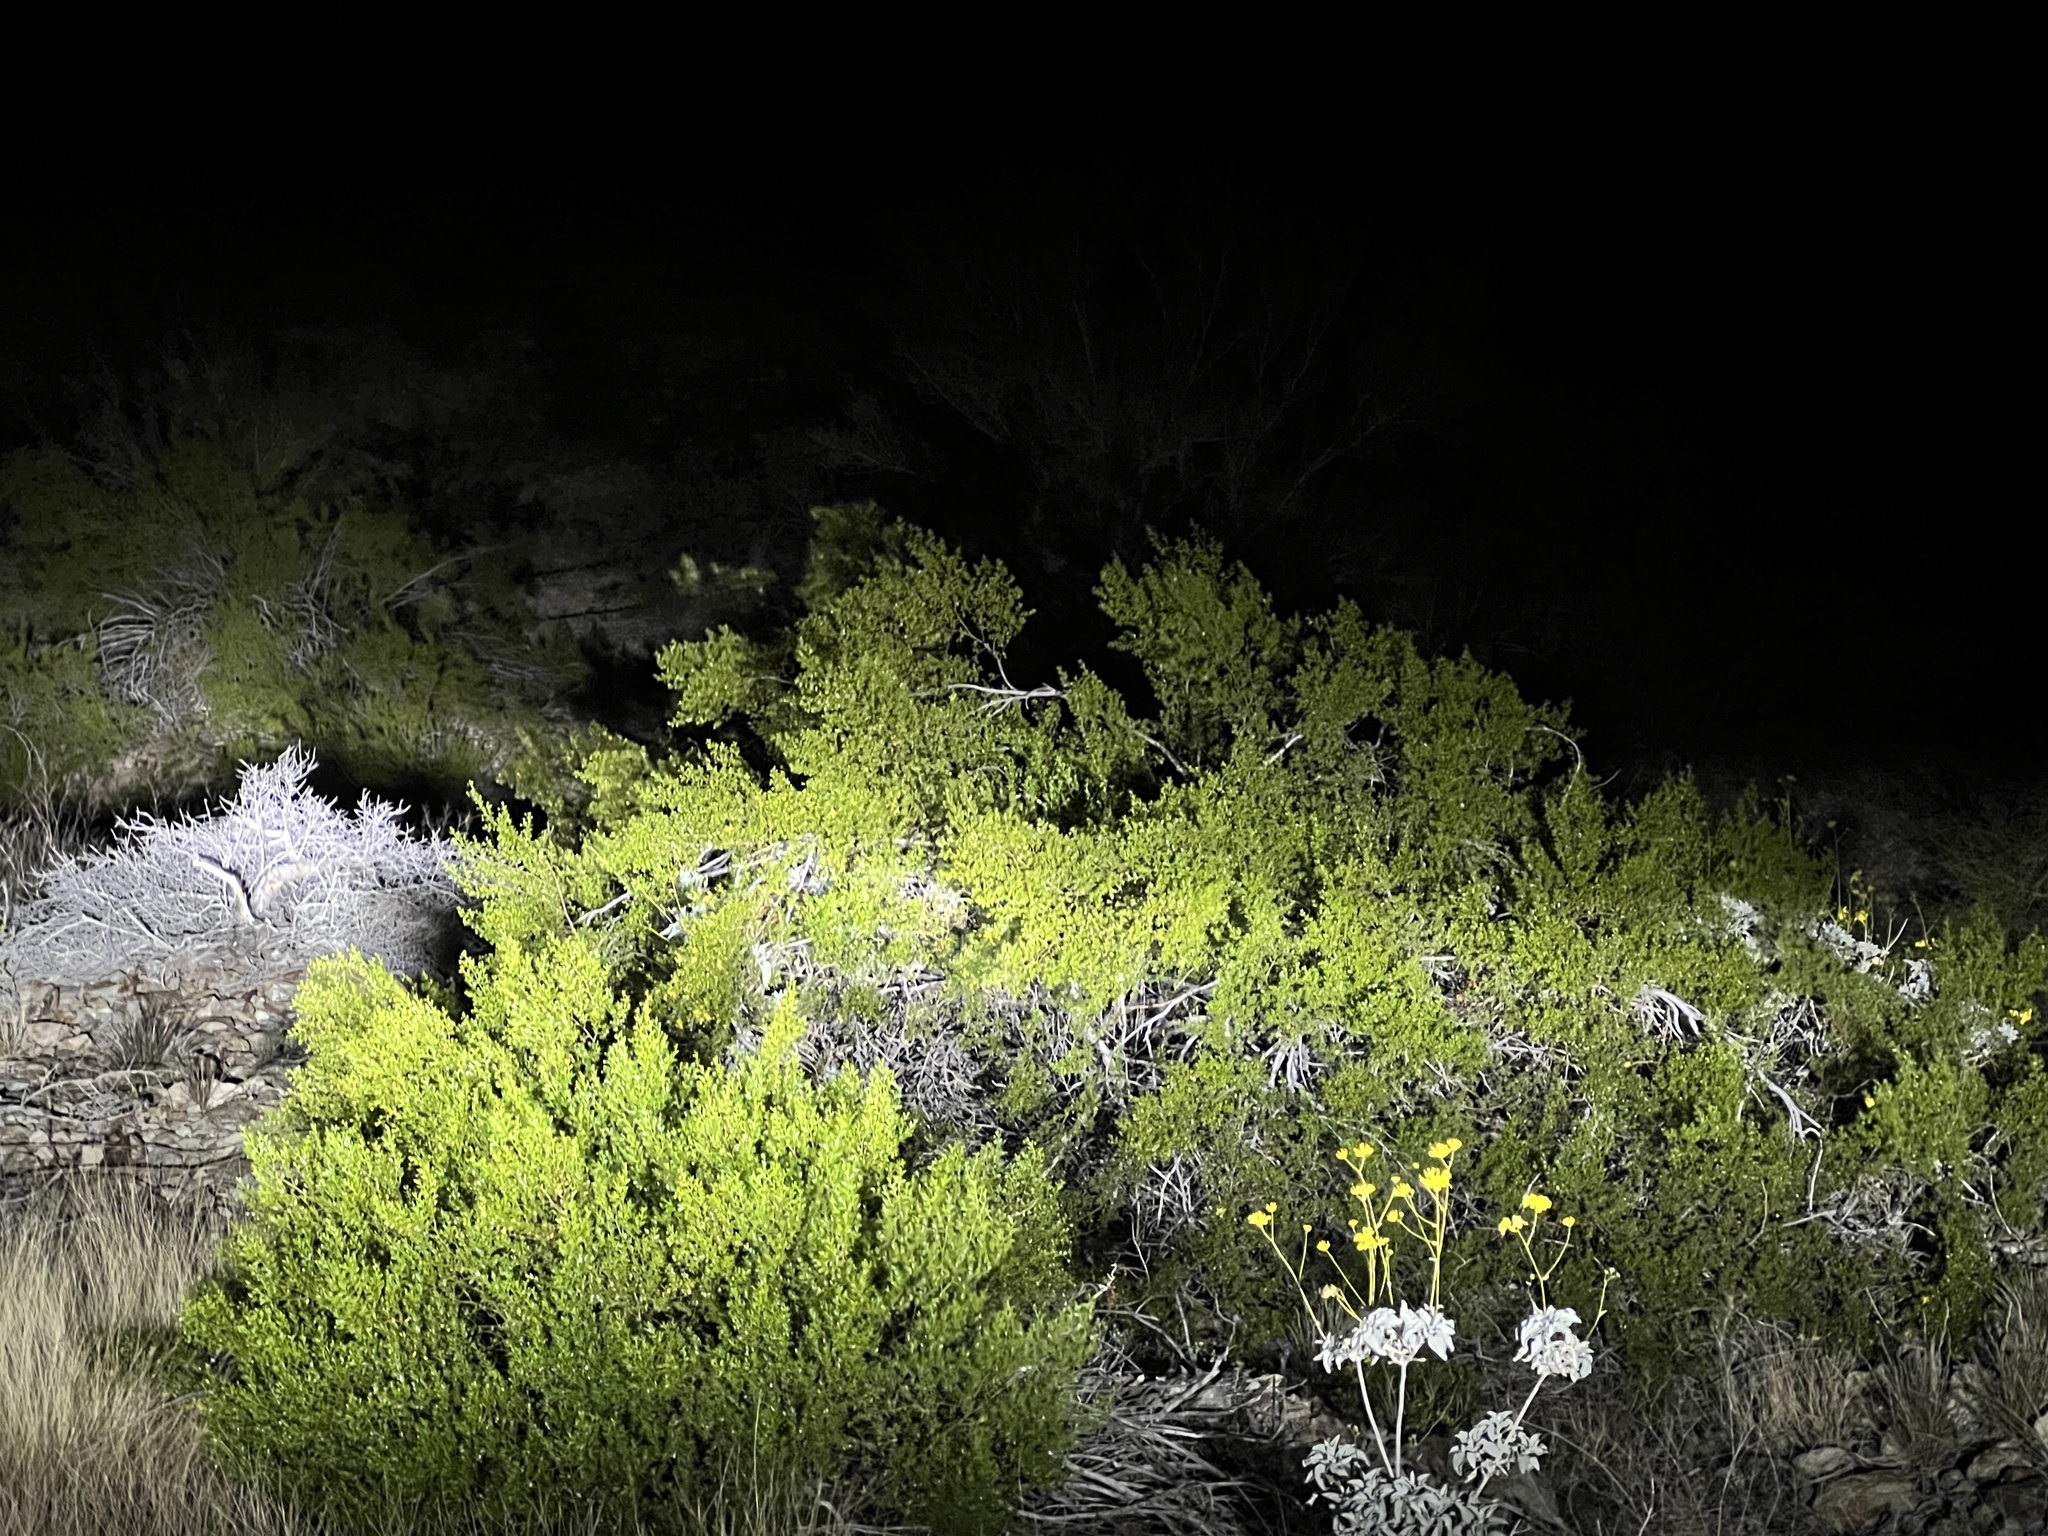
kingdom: Plantae
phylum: Tracheophyta
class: Magnoliopsida
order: Zygophyllales
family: Zygophyllaceae
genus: Larrea
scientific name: Larrea tridentata
